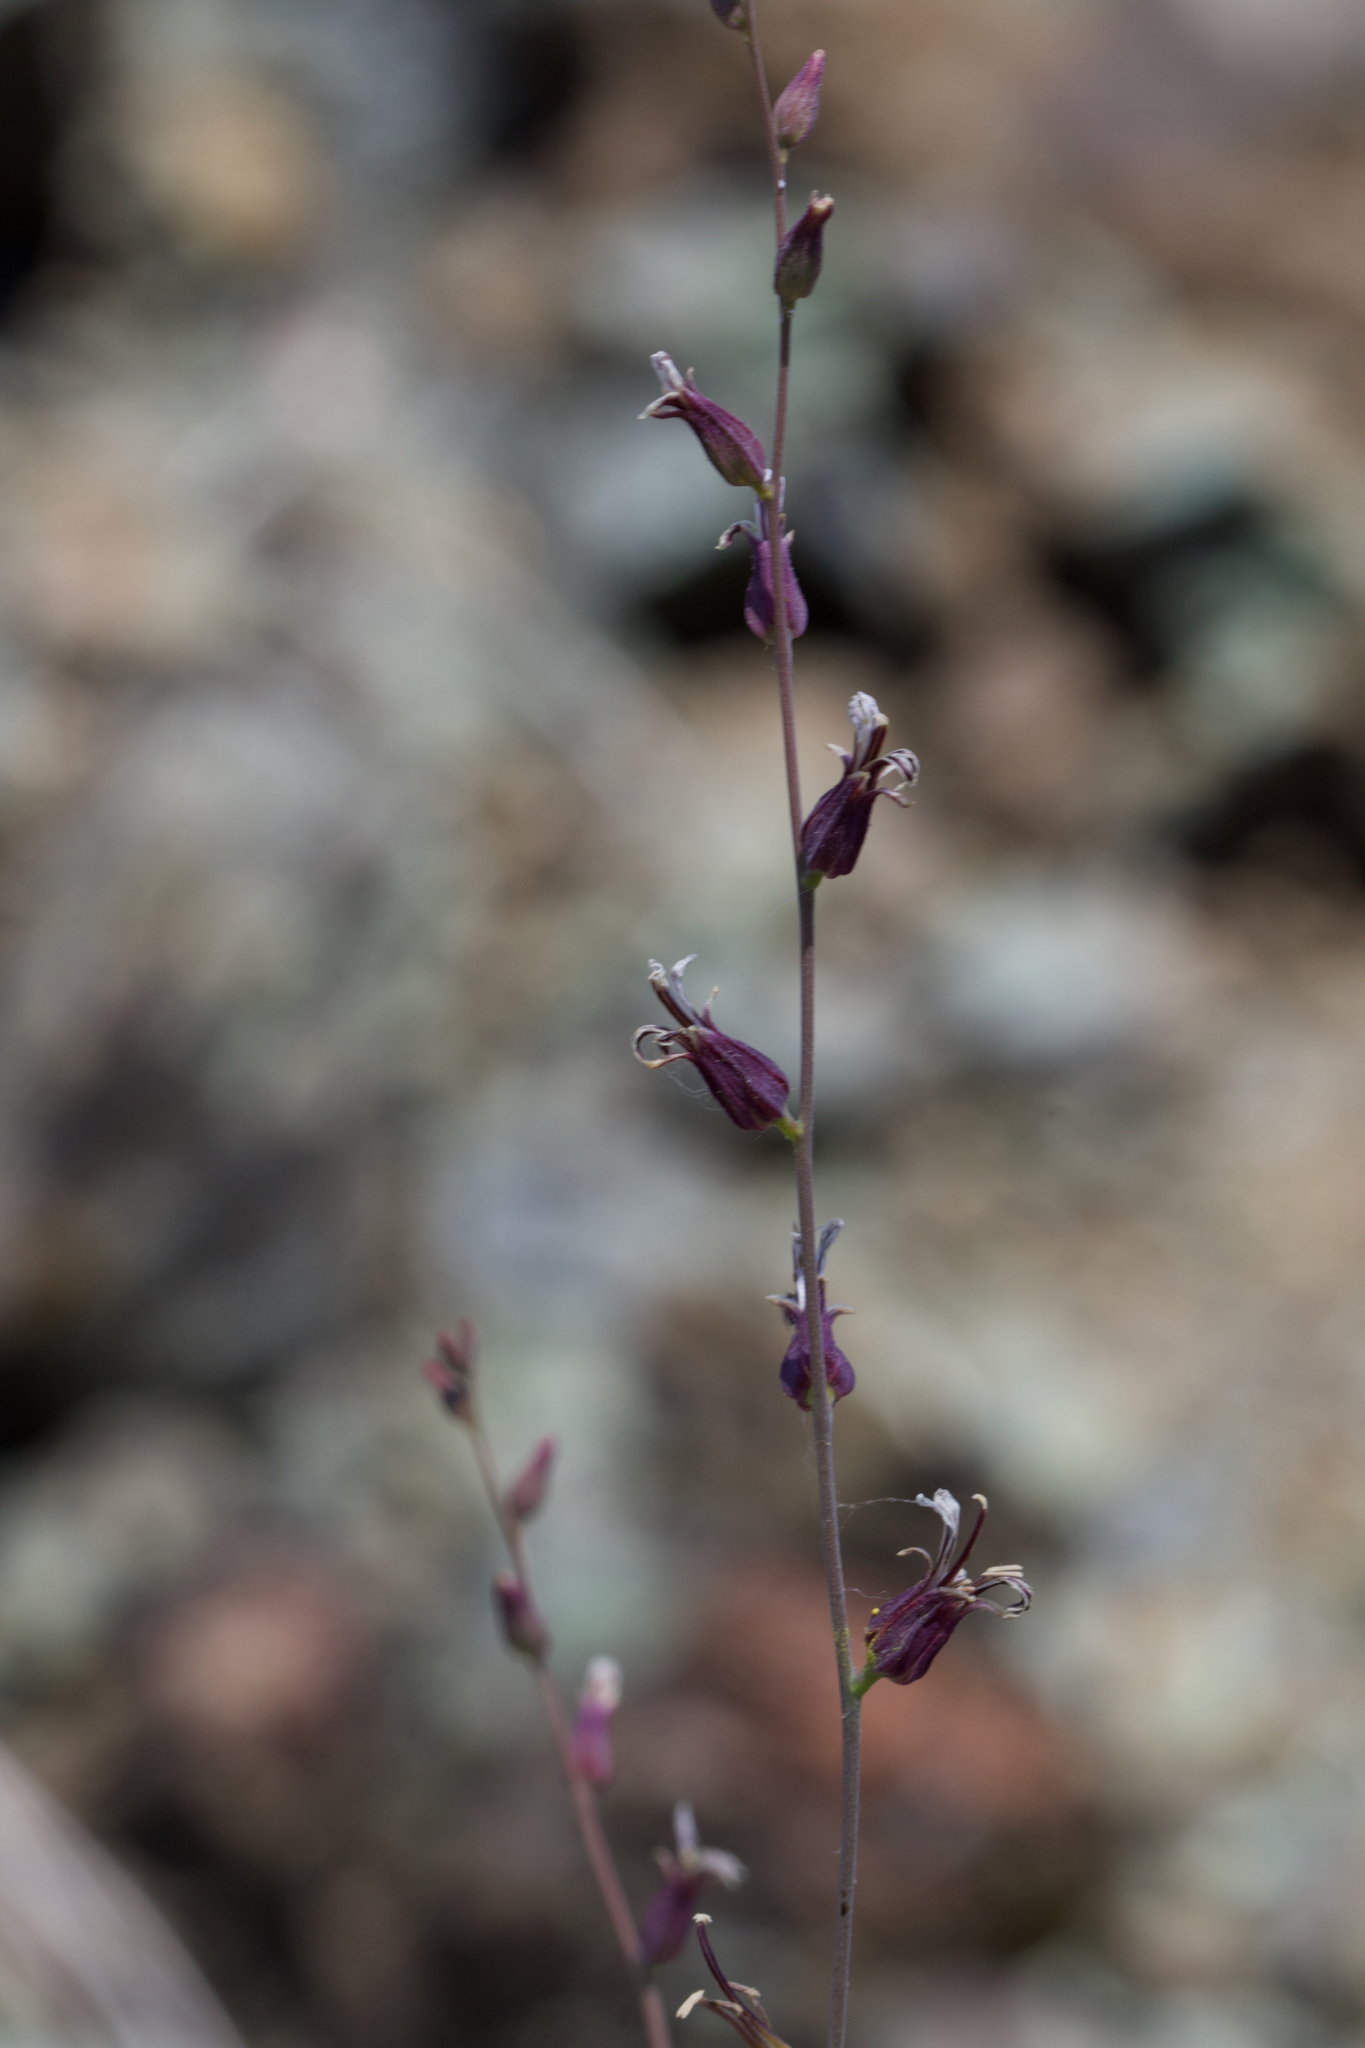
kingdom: Plantae
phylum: Tracheophyta
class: Magnoliopsida
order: Brassicales
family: Brassicaceae
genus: Streptanthus
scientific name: Streptanthus breweri
